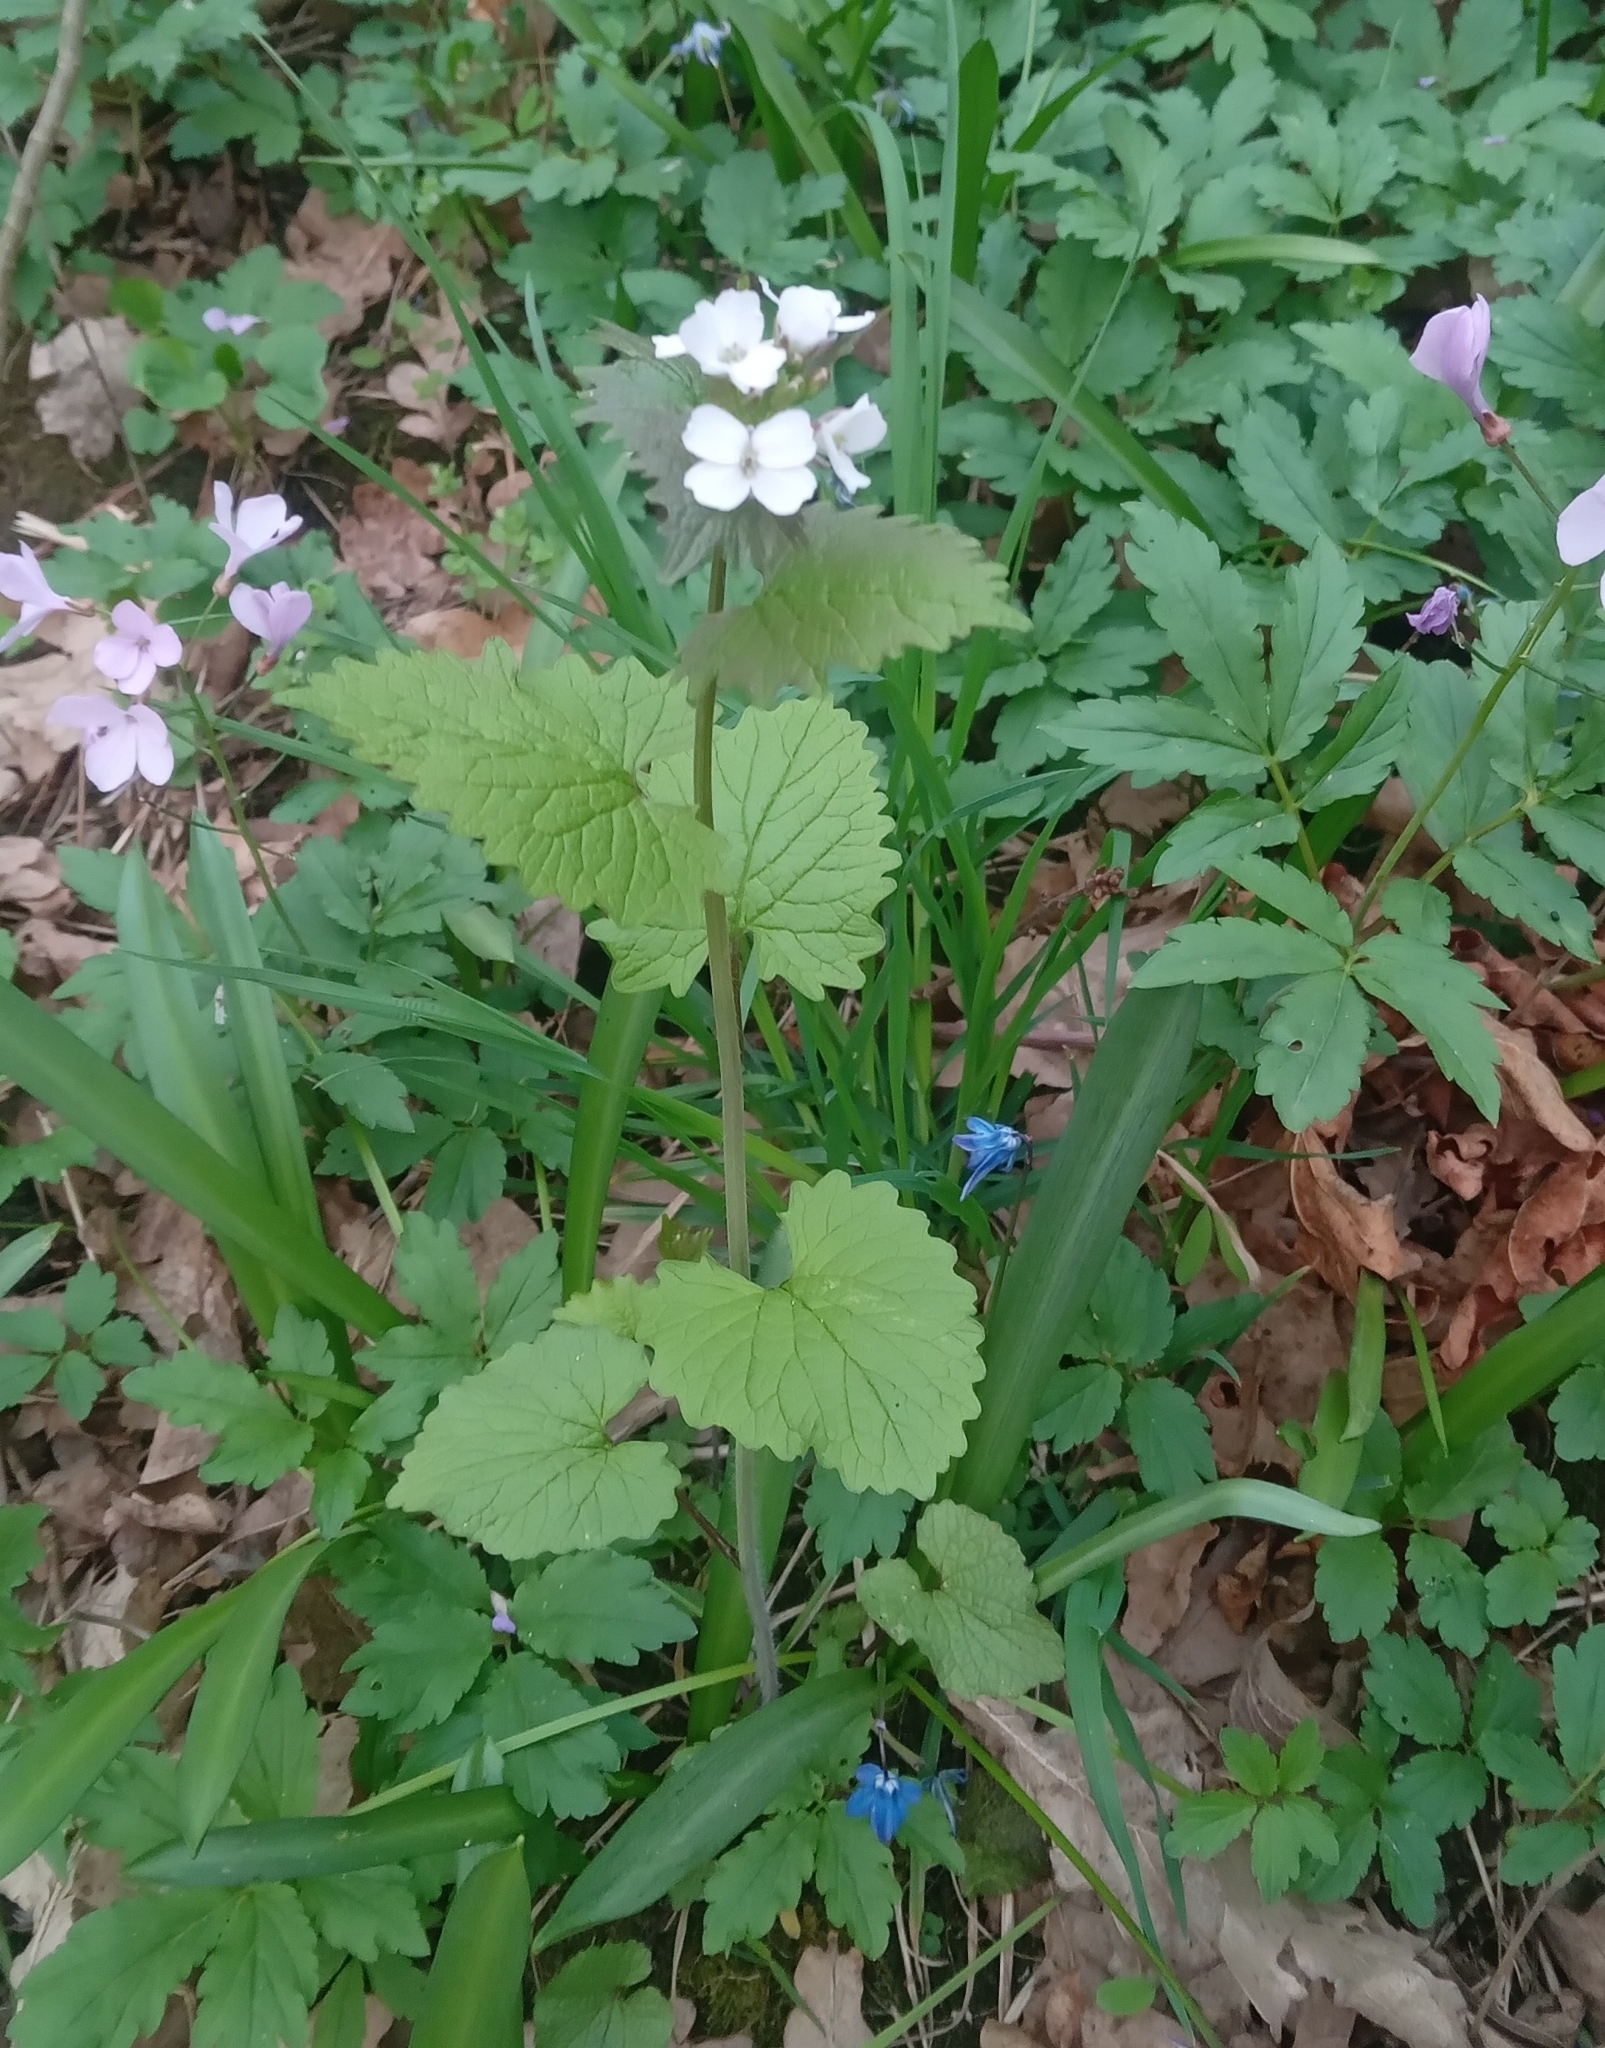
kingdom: Plantae
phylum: Tracheophyta
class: Magnoliopsida
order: Brassicales
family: Brassicaceae
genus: Alliaria
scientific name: Alliaria petiolata
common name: Garlic mustard
